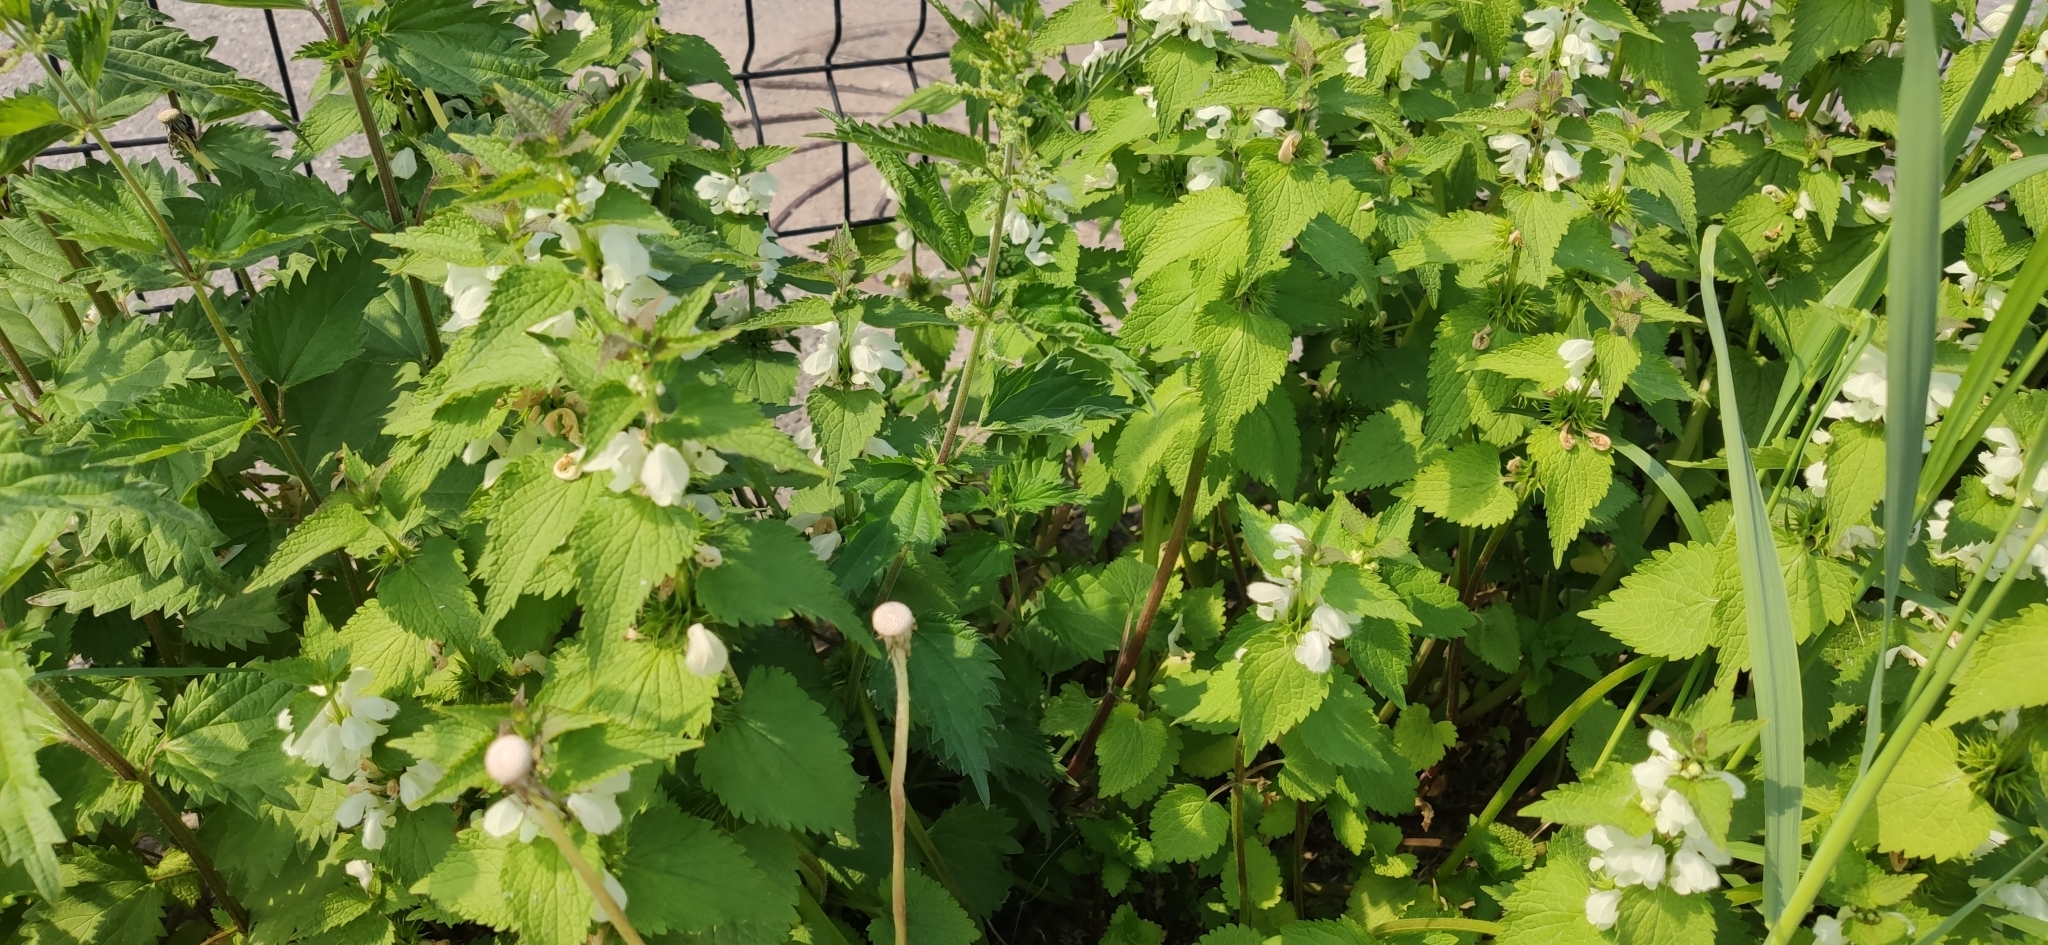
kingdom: Plantae
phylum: Tracheophyta
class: Magnoliopsida
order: Lamiales
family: Lamiaceae
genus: Lamium
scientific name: Lamium album
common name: White dead-nettle
